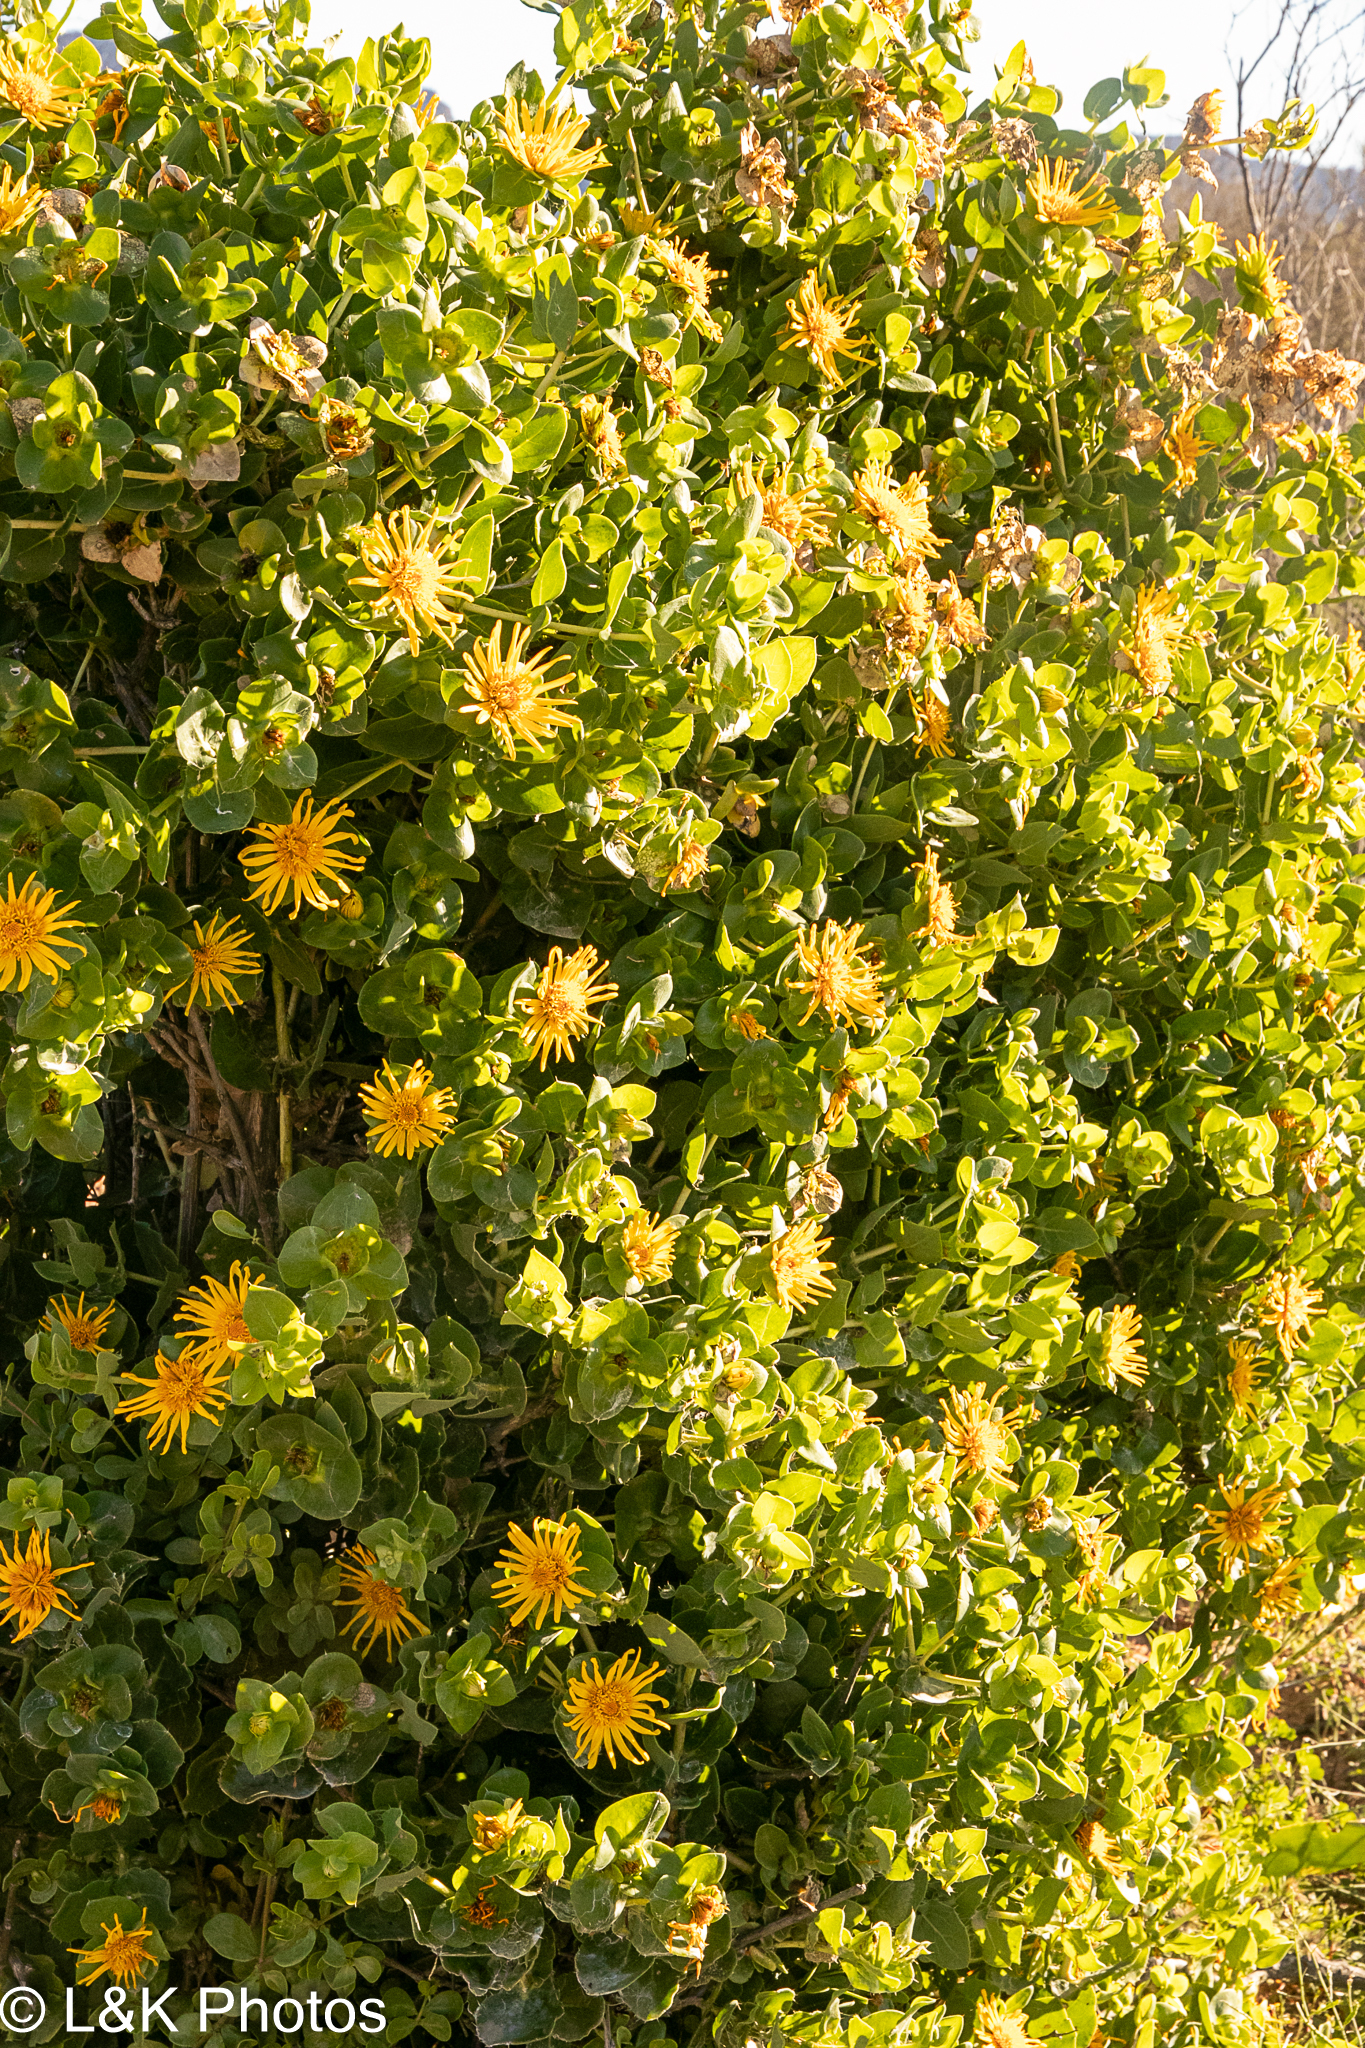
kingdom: Plantae
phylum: Tracheophyta
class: Magnoliopsida
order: Asterales
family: Asteraceae
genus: Didelta
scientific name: Didelta spinosa
